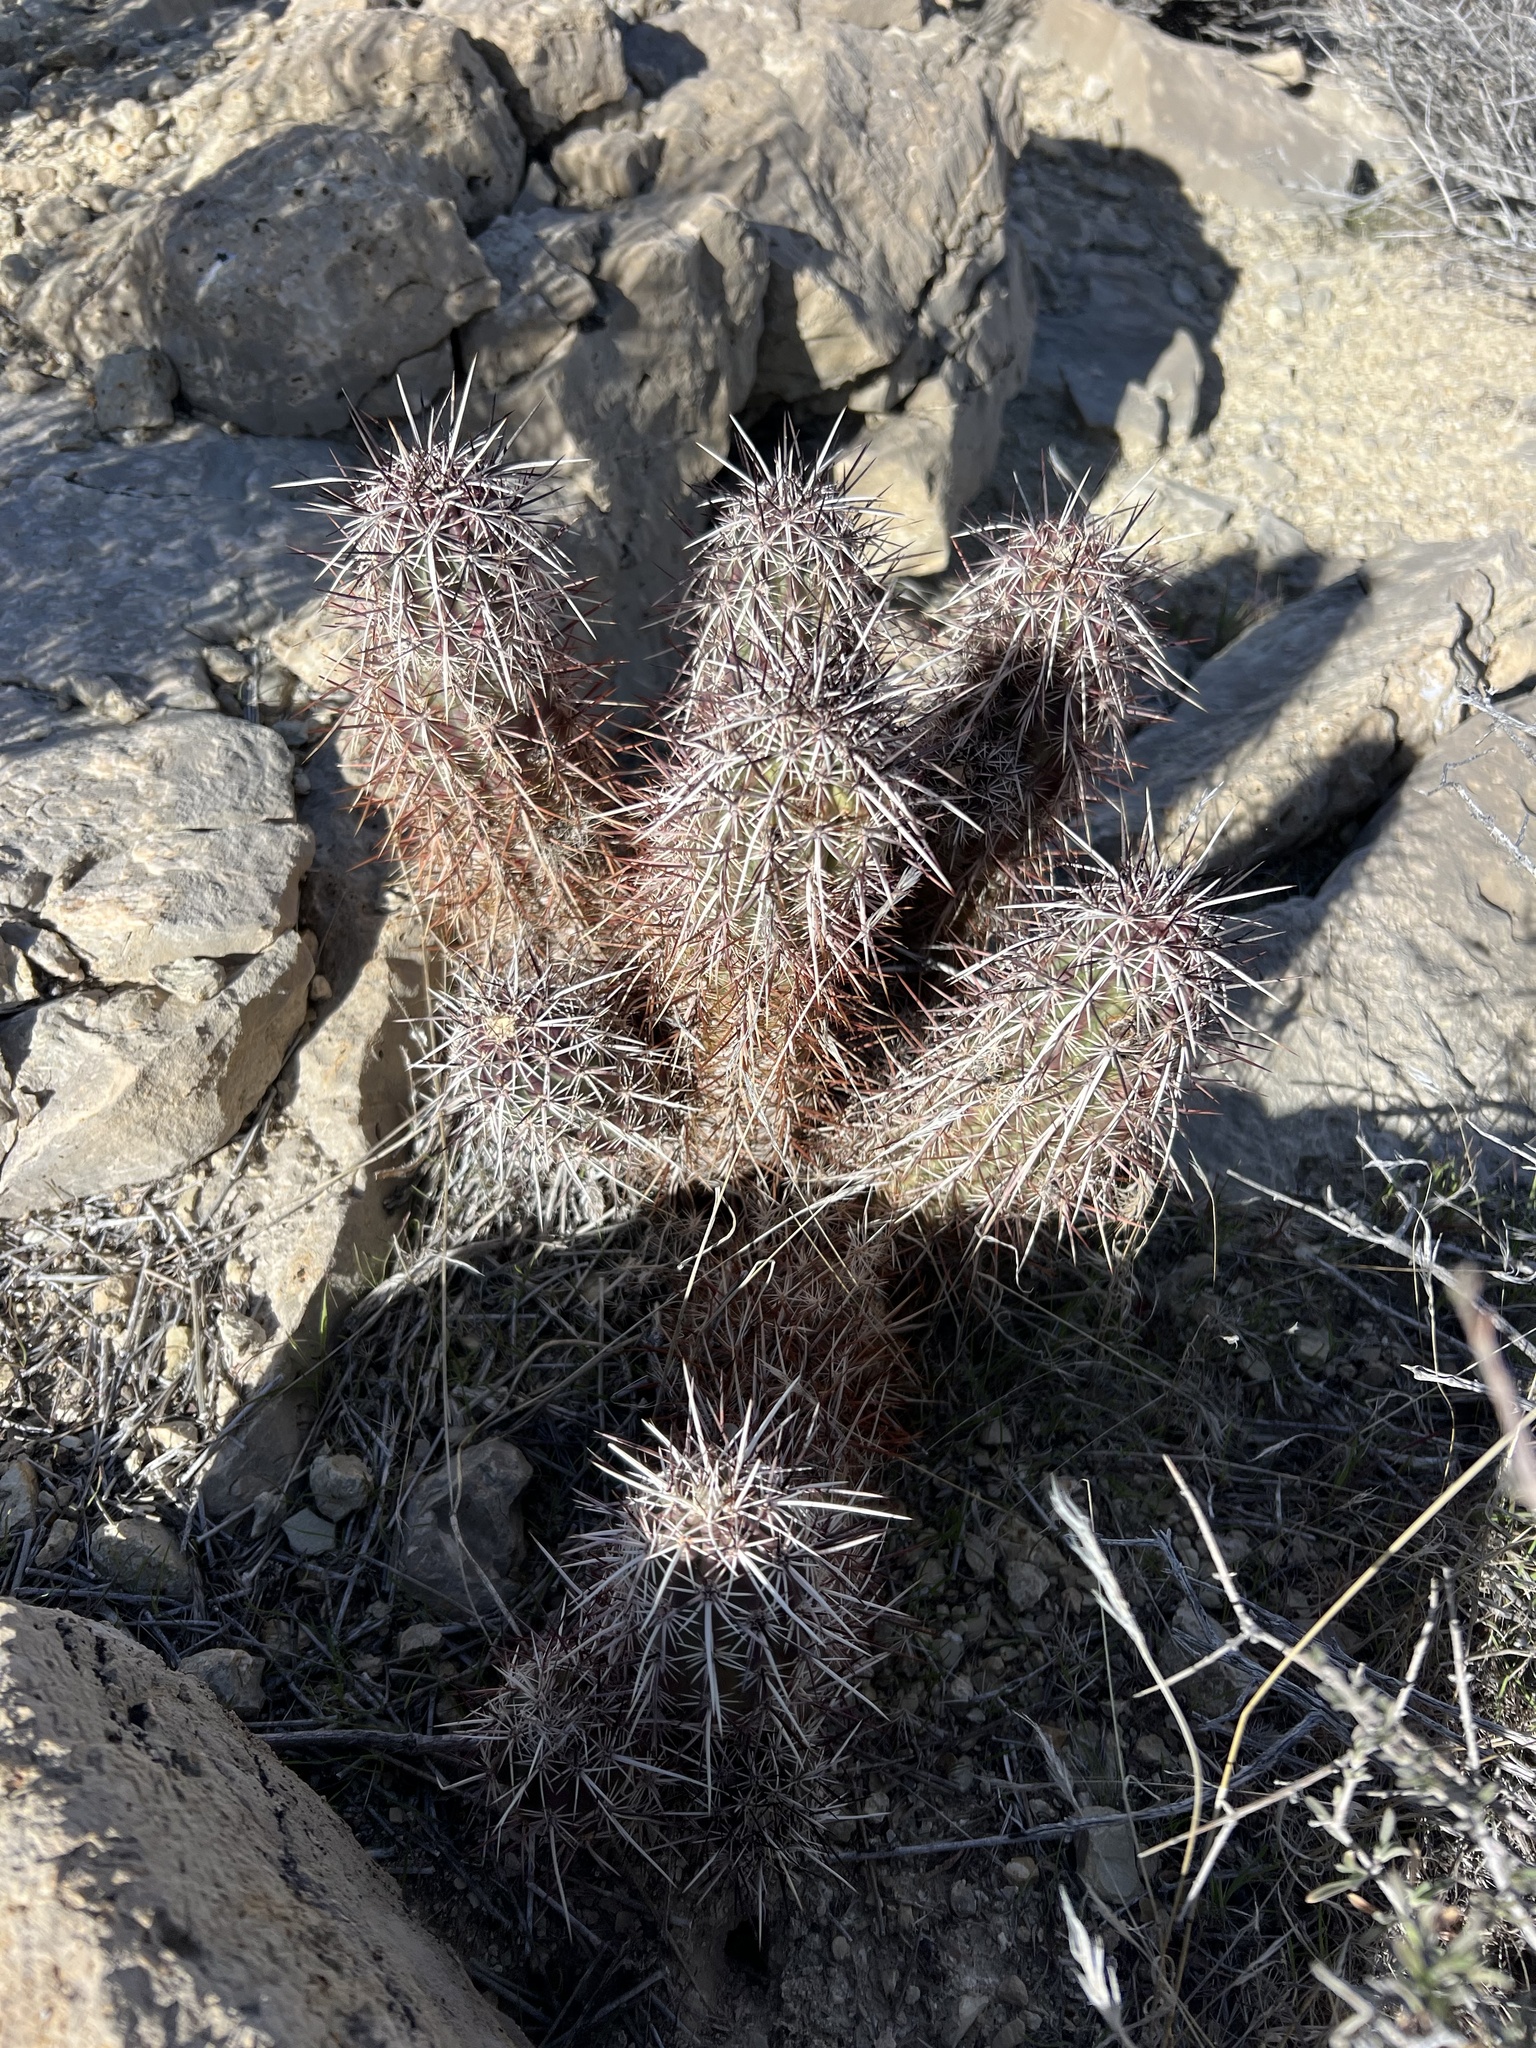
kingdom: Plantae
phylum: Tracheophyta
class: Magnoliopsida
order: Caryophyllales
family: Cactaceae
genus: Echinocereus
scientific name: Echinocereus engelmannii
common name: Engelmann's hedgehog cactus
